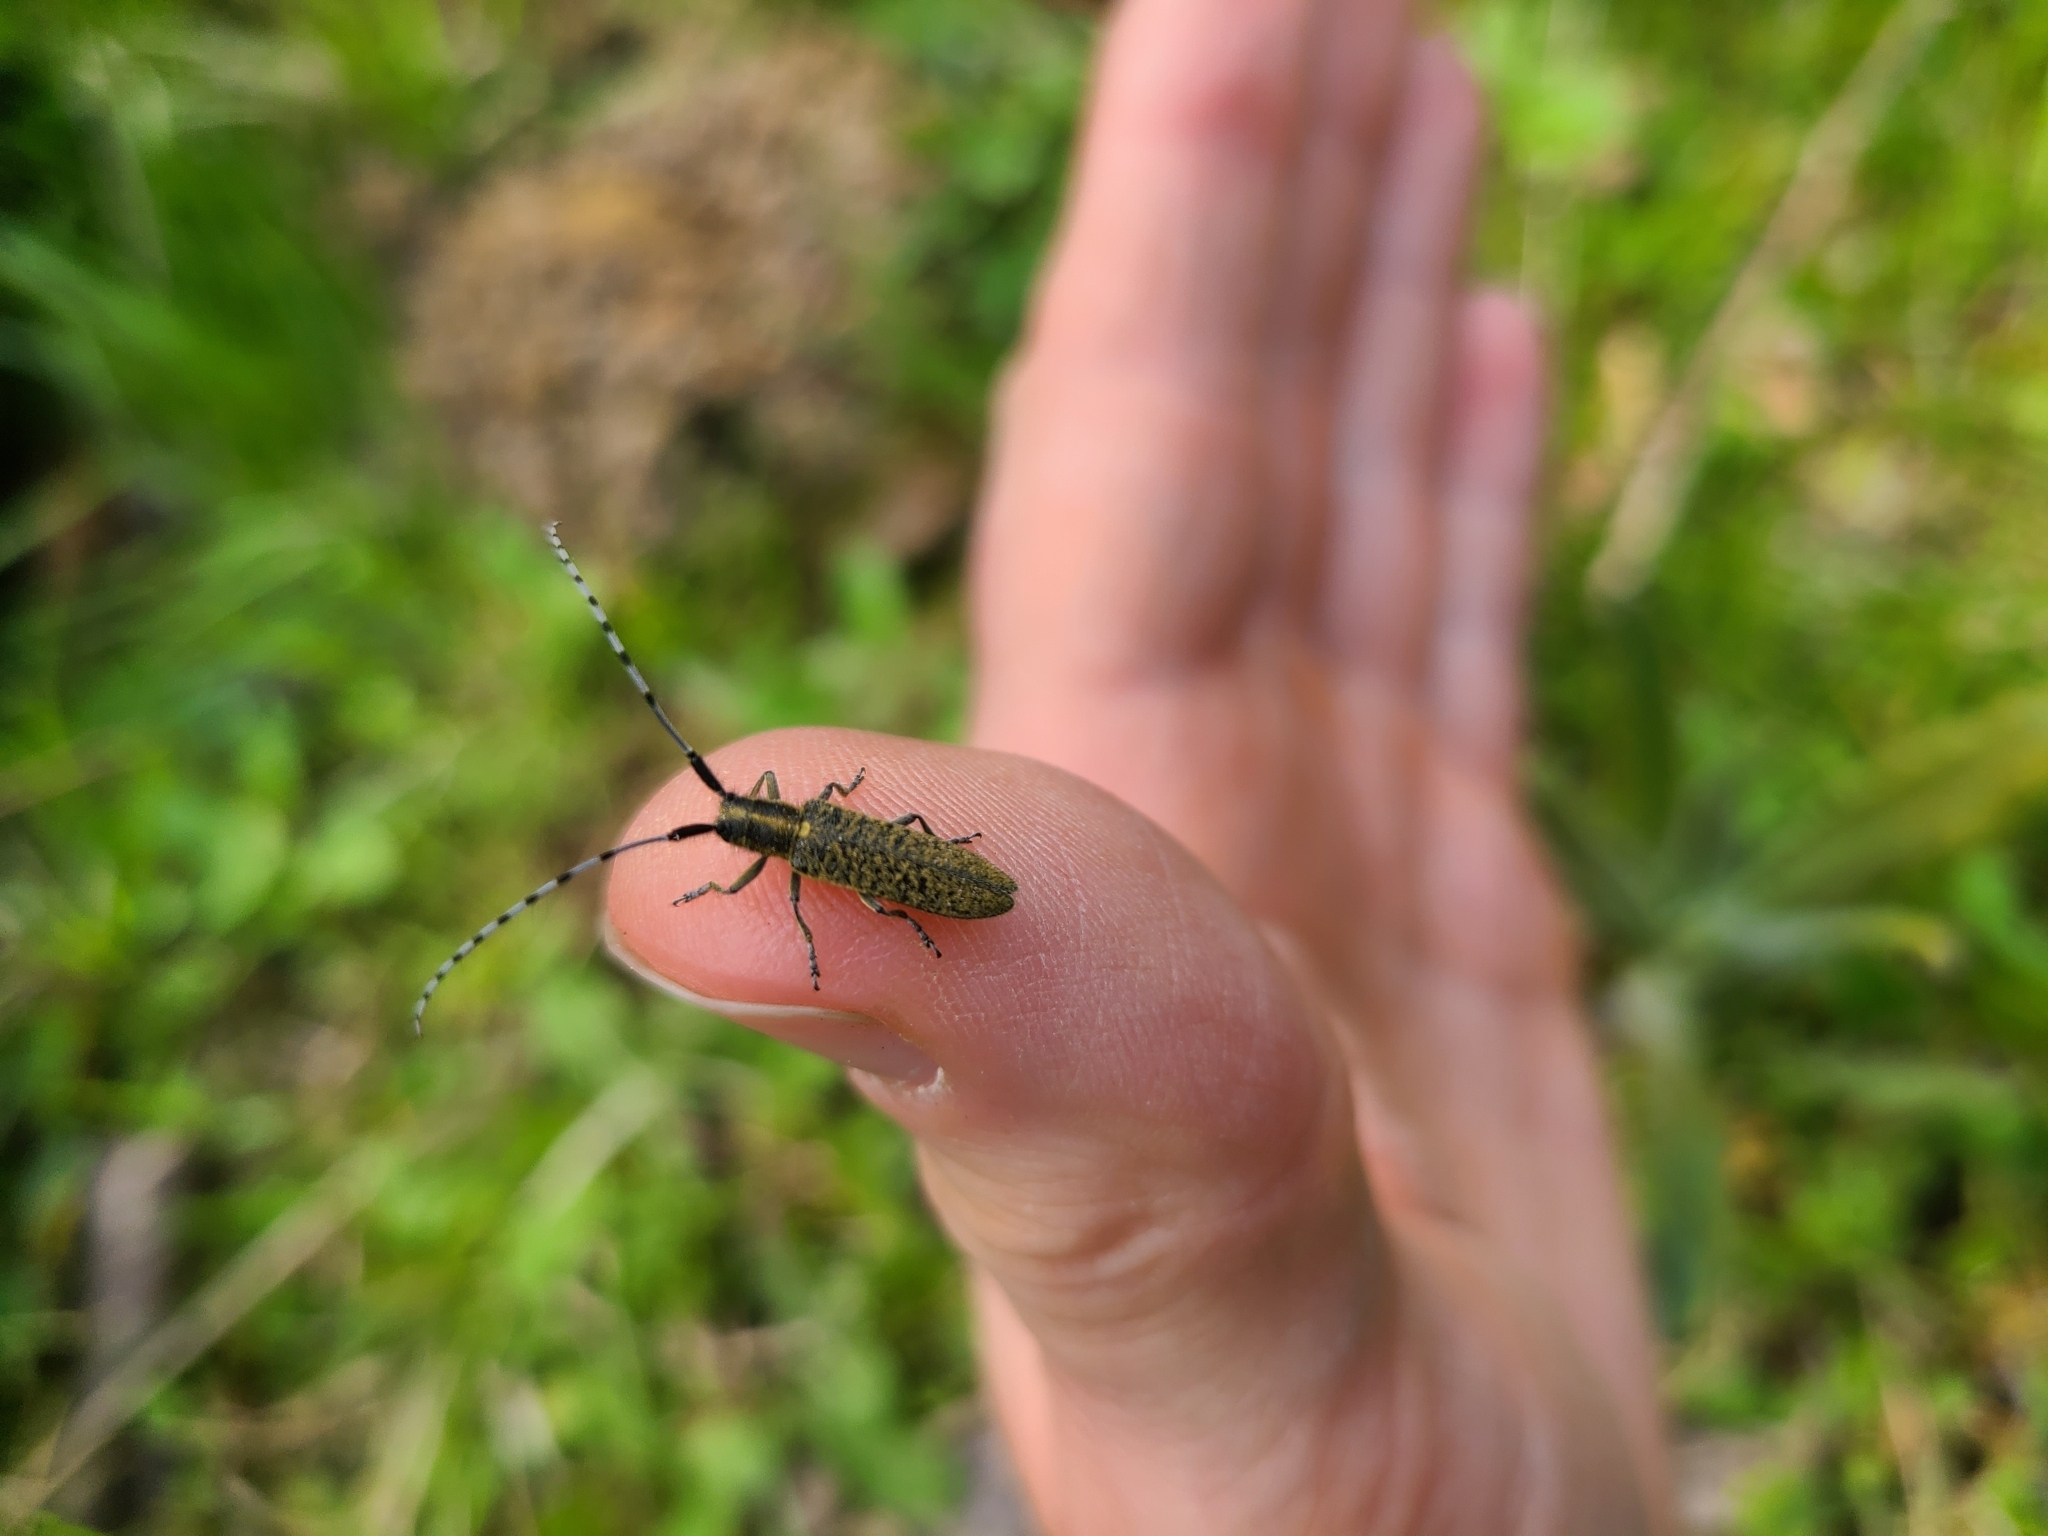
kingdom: Animalia
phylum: Arthropoda
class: Insecta
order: Coleoptera
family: Cerambycidae
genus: Agapanthia
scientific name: Agapanthia villosoviridescens
